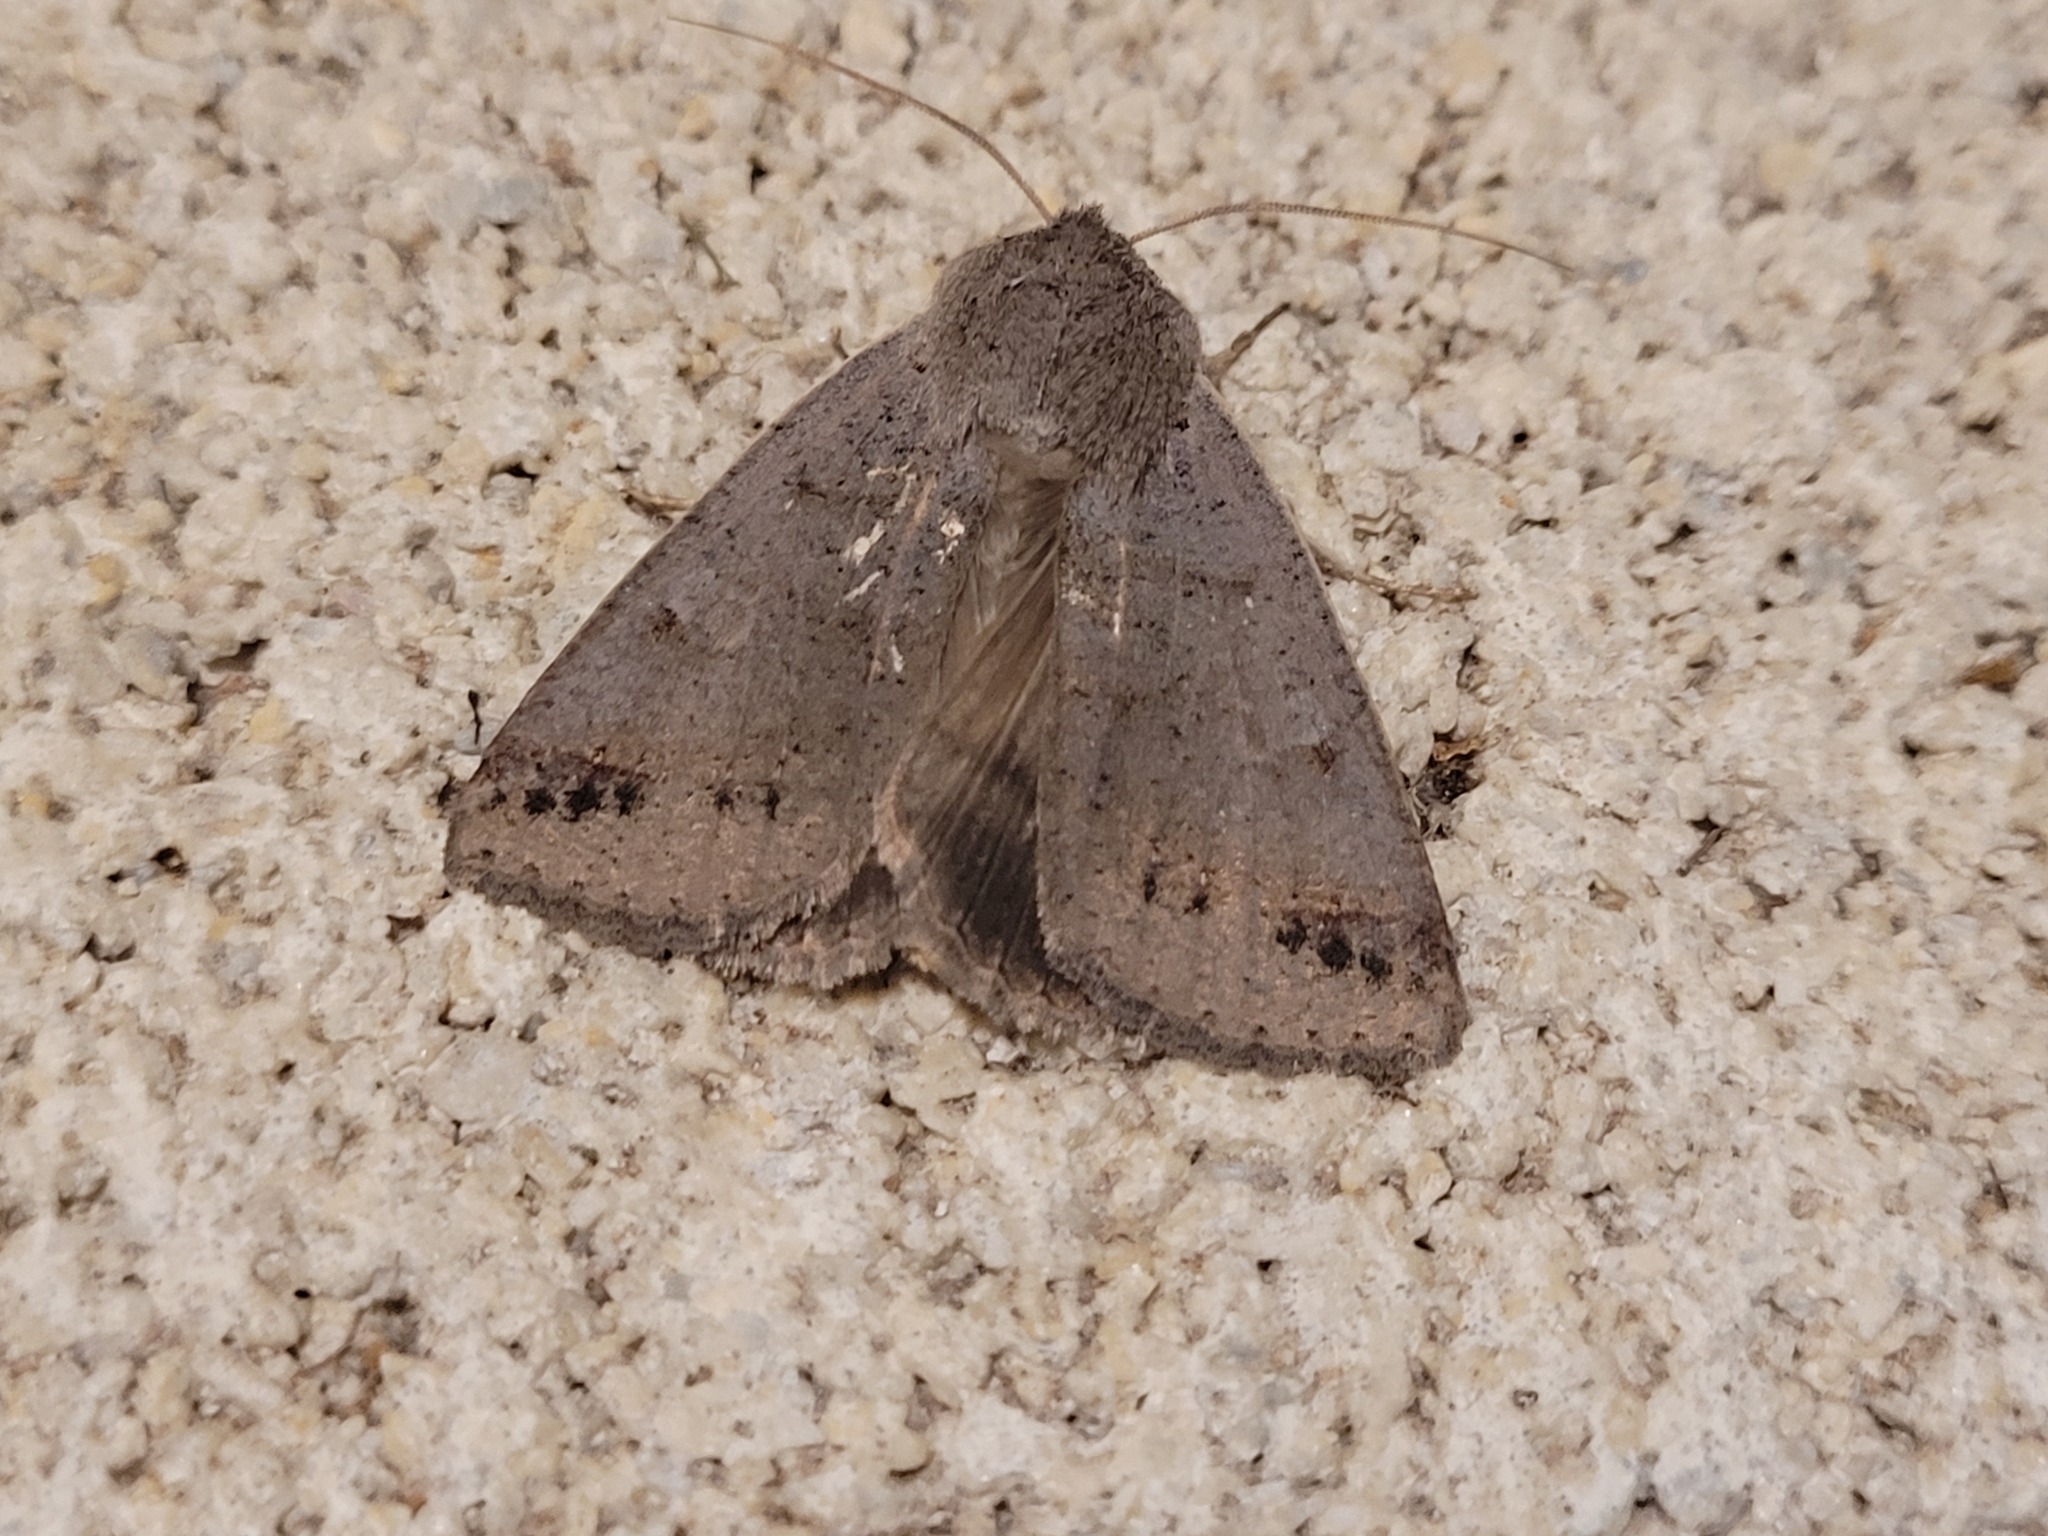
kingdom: Animalia
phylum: Arthropoda
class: Insecta
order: Lepidoptera
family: Erebidae
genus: Pantydia
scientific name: Pantydia sparsa
